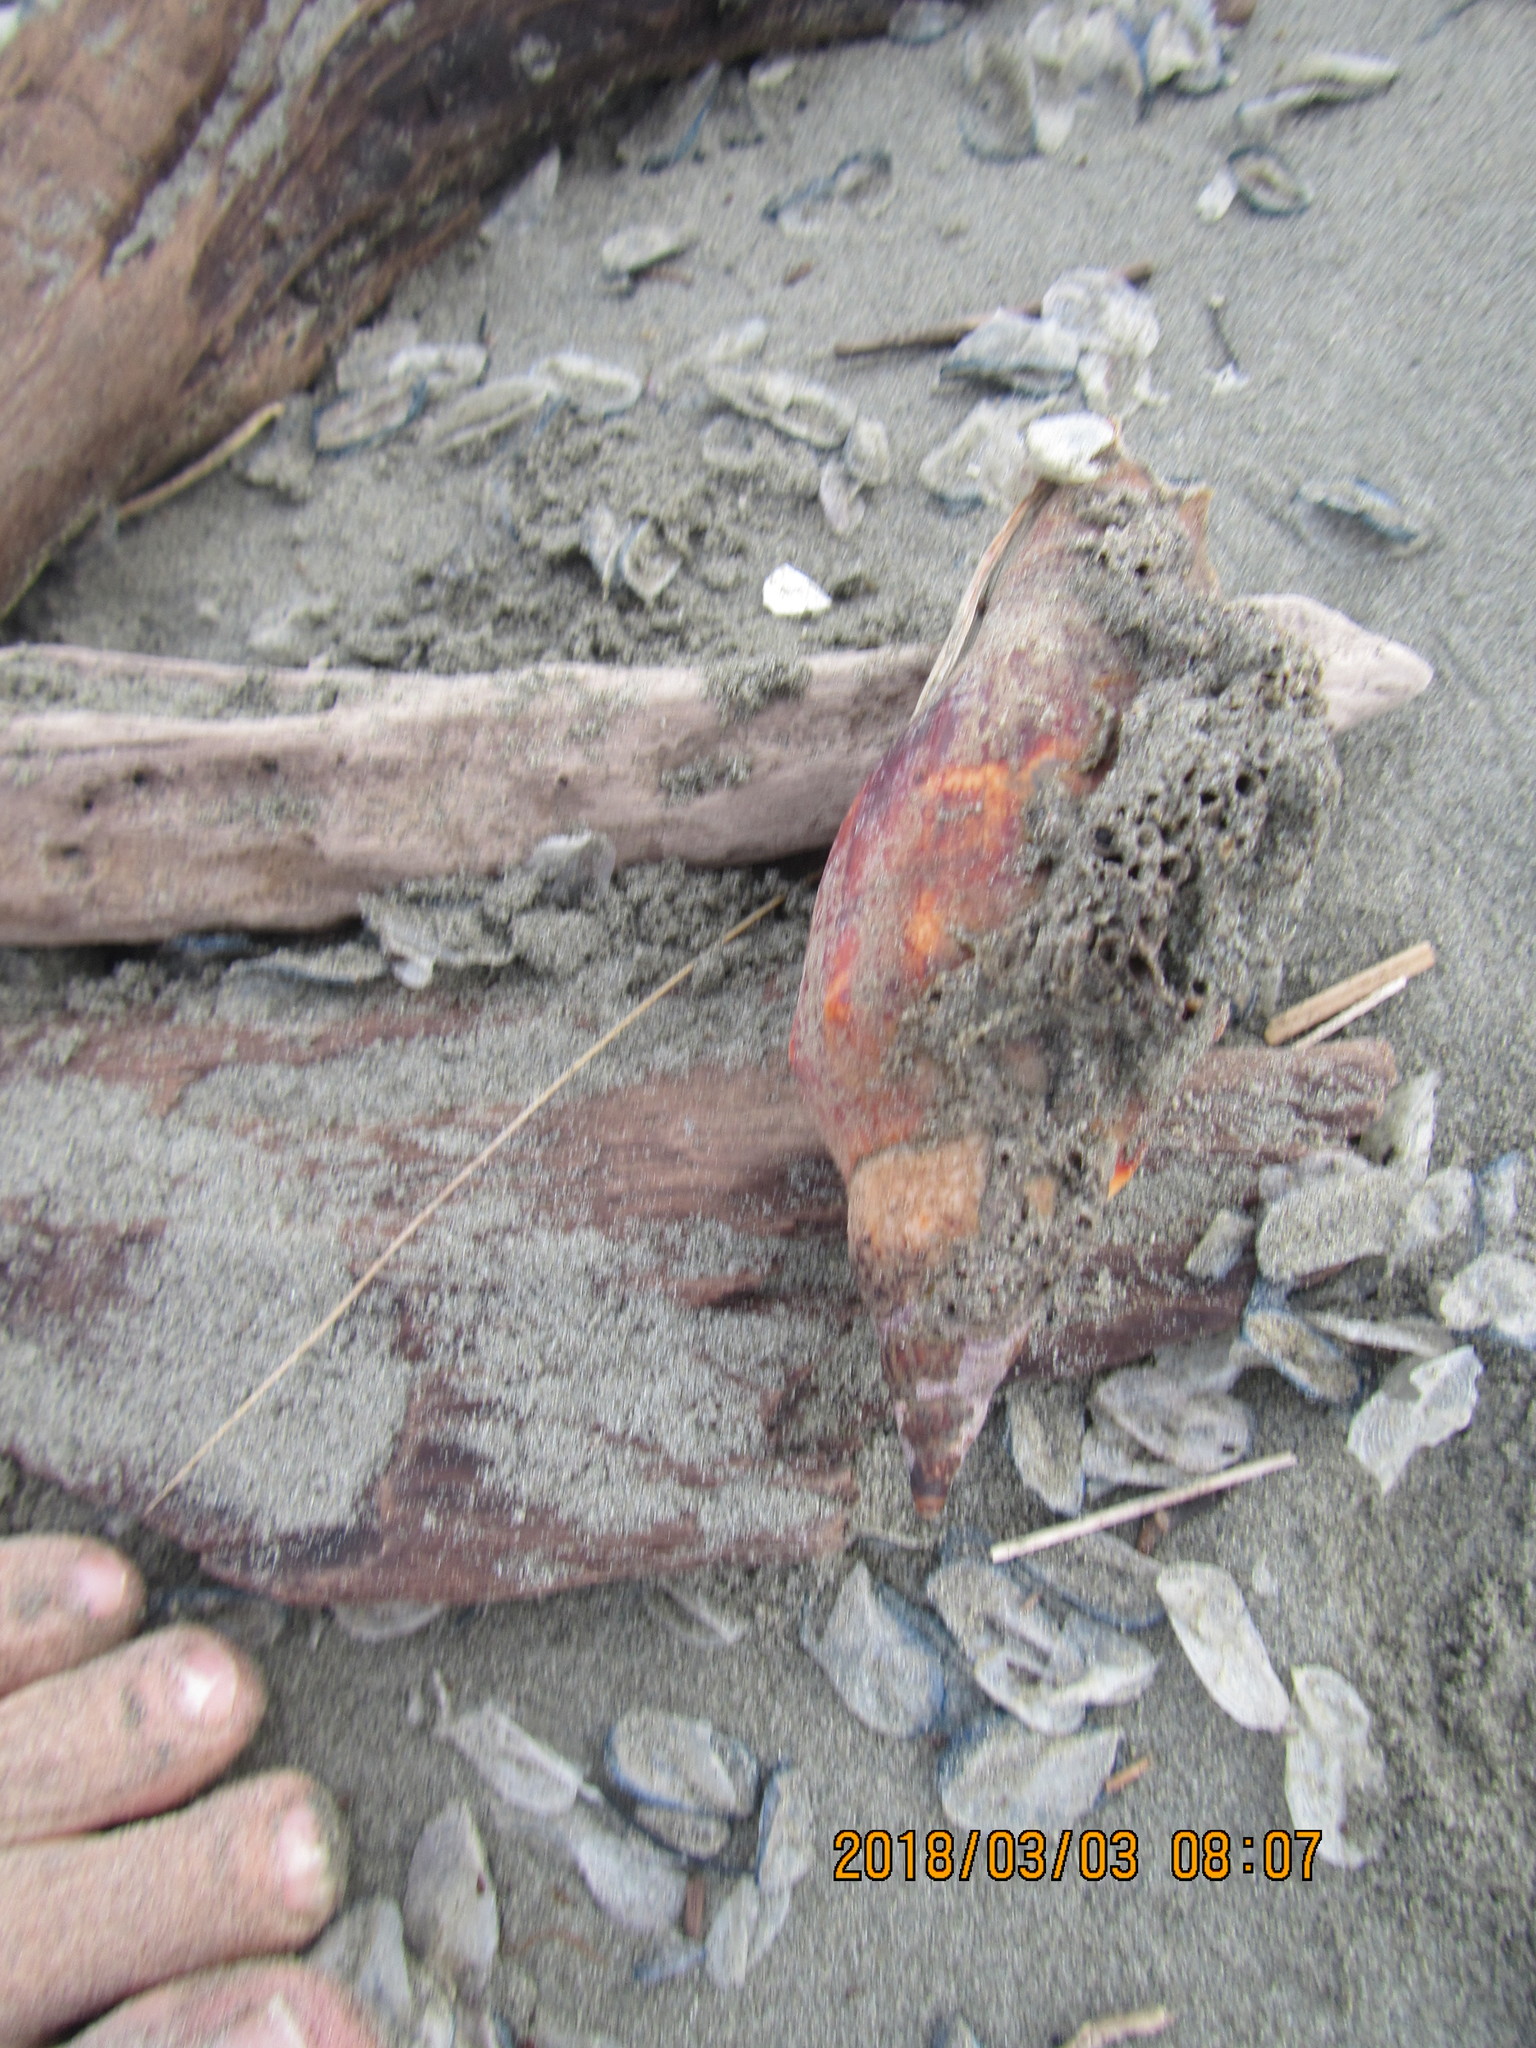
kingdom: Animalia
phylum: Mollusca
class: Gastropoda
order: Neogastropoda
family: Volutidae
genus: Alcithoe
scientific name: Alcithoe arabica
